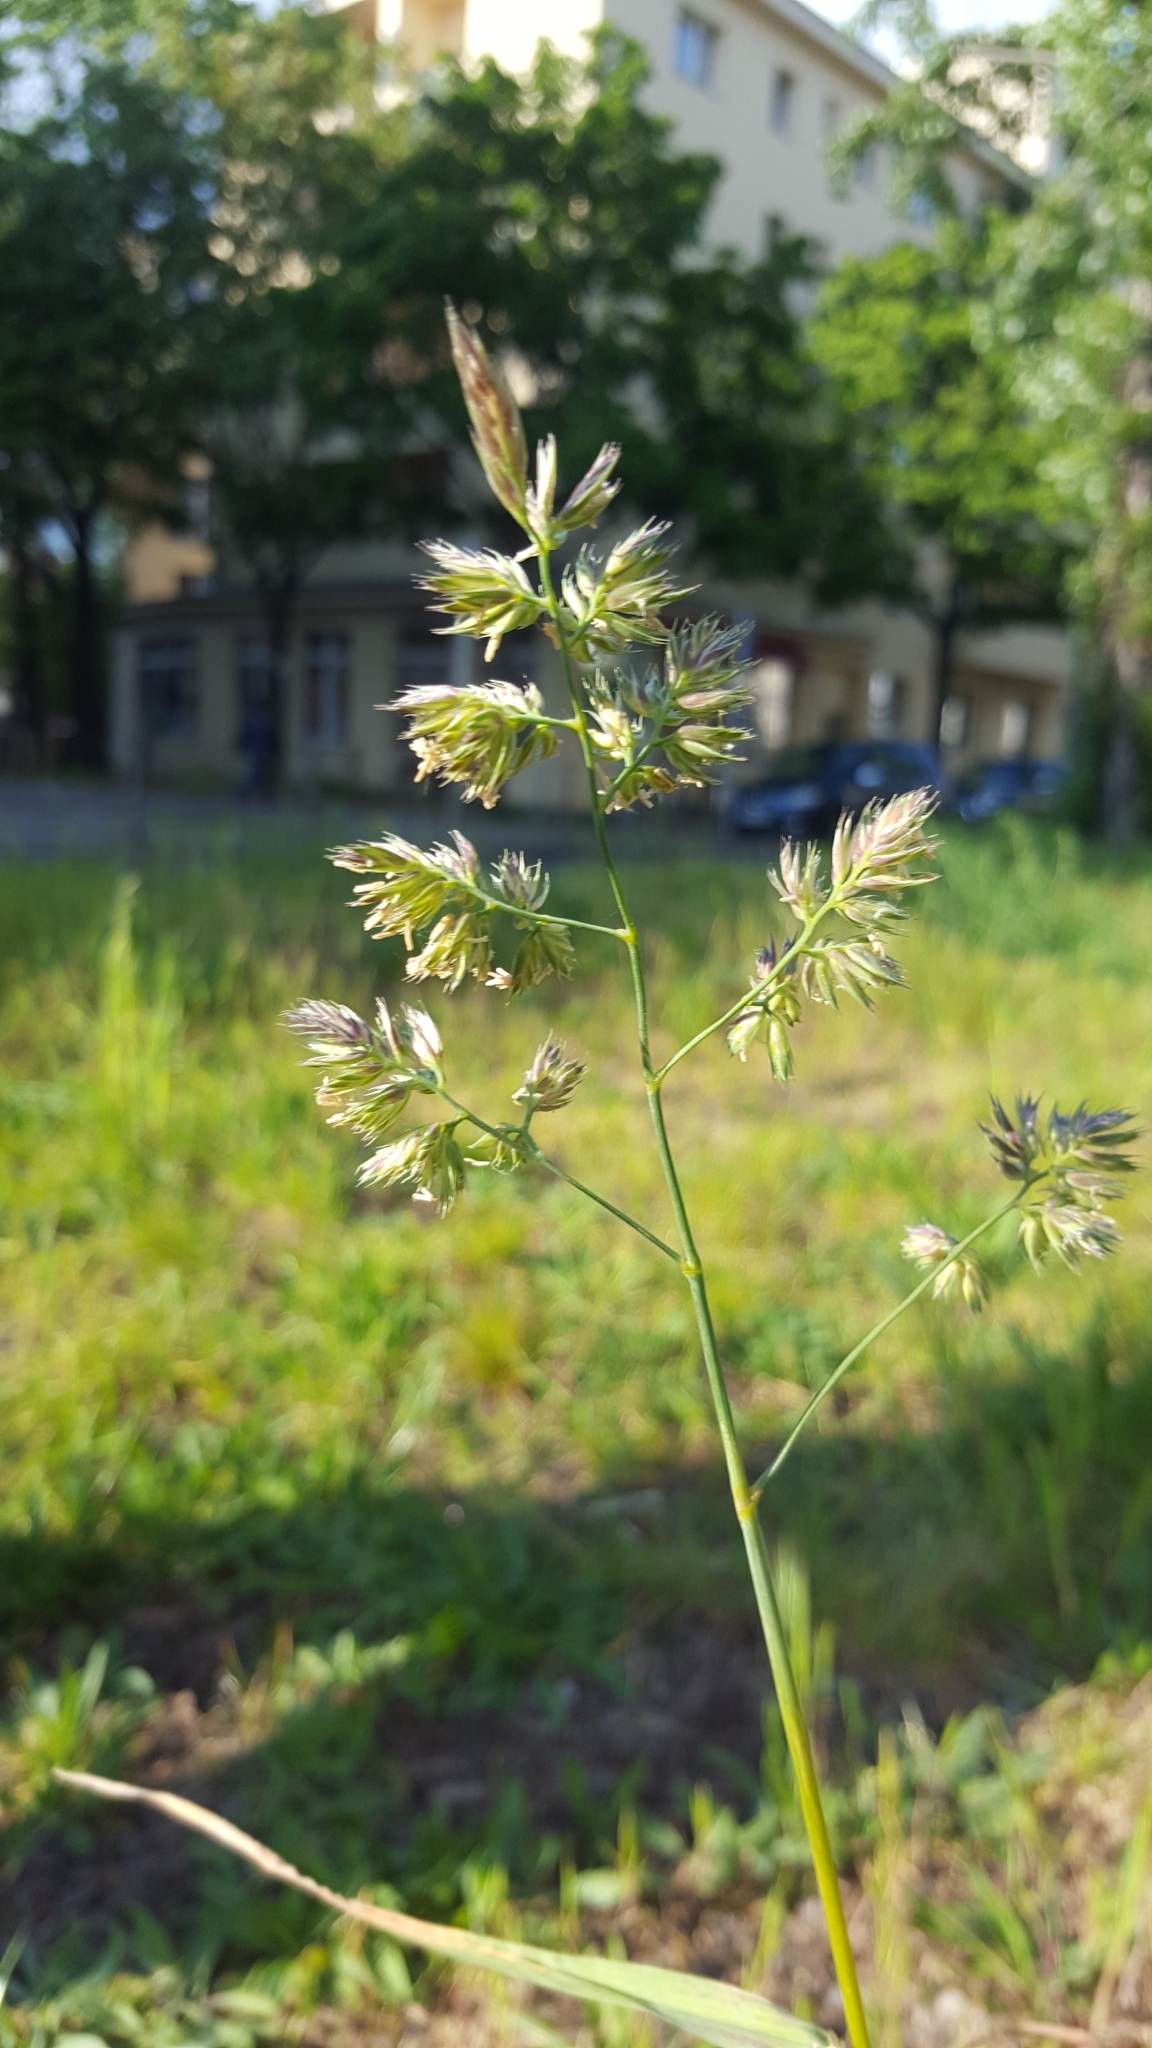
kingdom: Plantae
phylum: Tracheophyta
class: Liliopsida
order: Poales
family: Poaceae
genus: Dactylis
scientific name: Dactylis glomerata
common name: Orchardgrass
